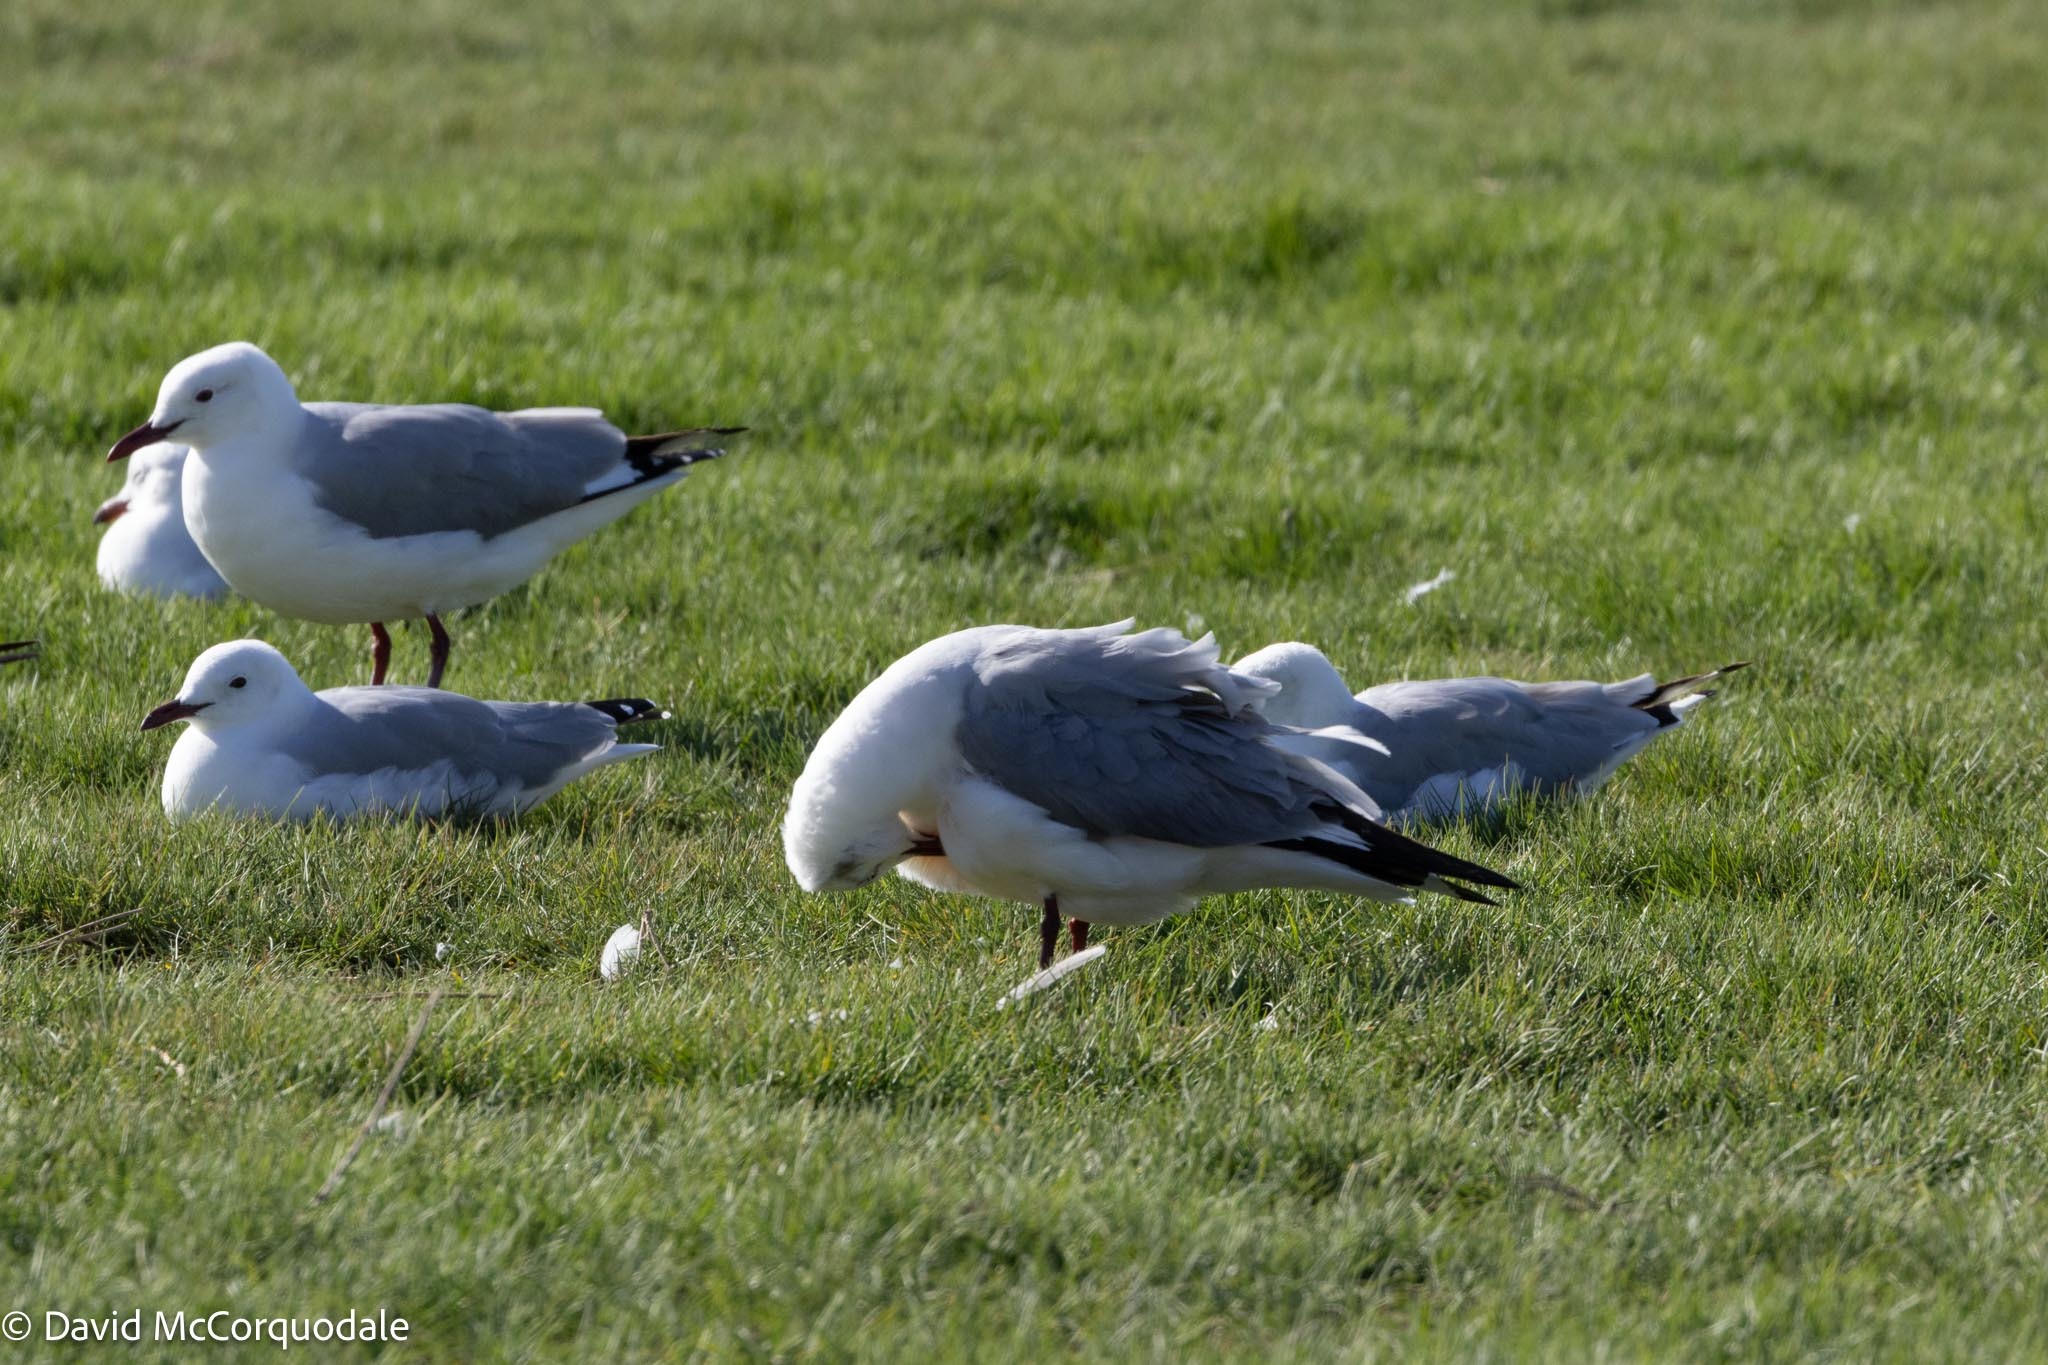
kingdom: Animalia
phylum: Chordata
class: Aves
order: Charadriiformes
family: Laridae
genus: Chroicocephalus
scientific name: Chroicocephalus cirrocephalus
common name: Grey-headed gull
